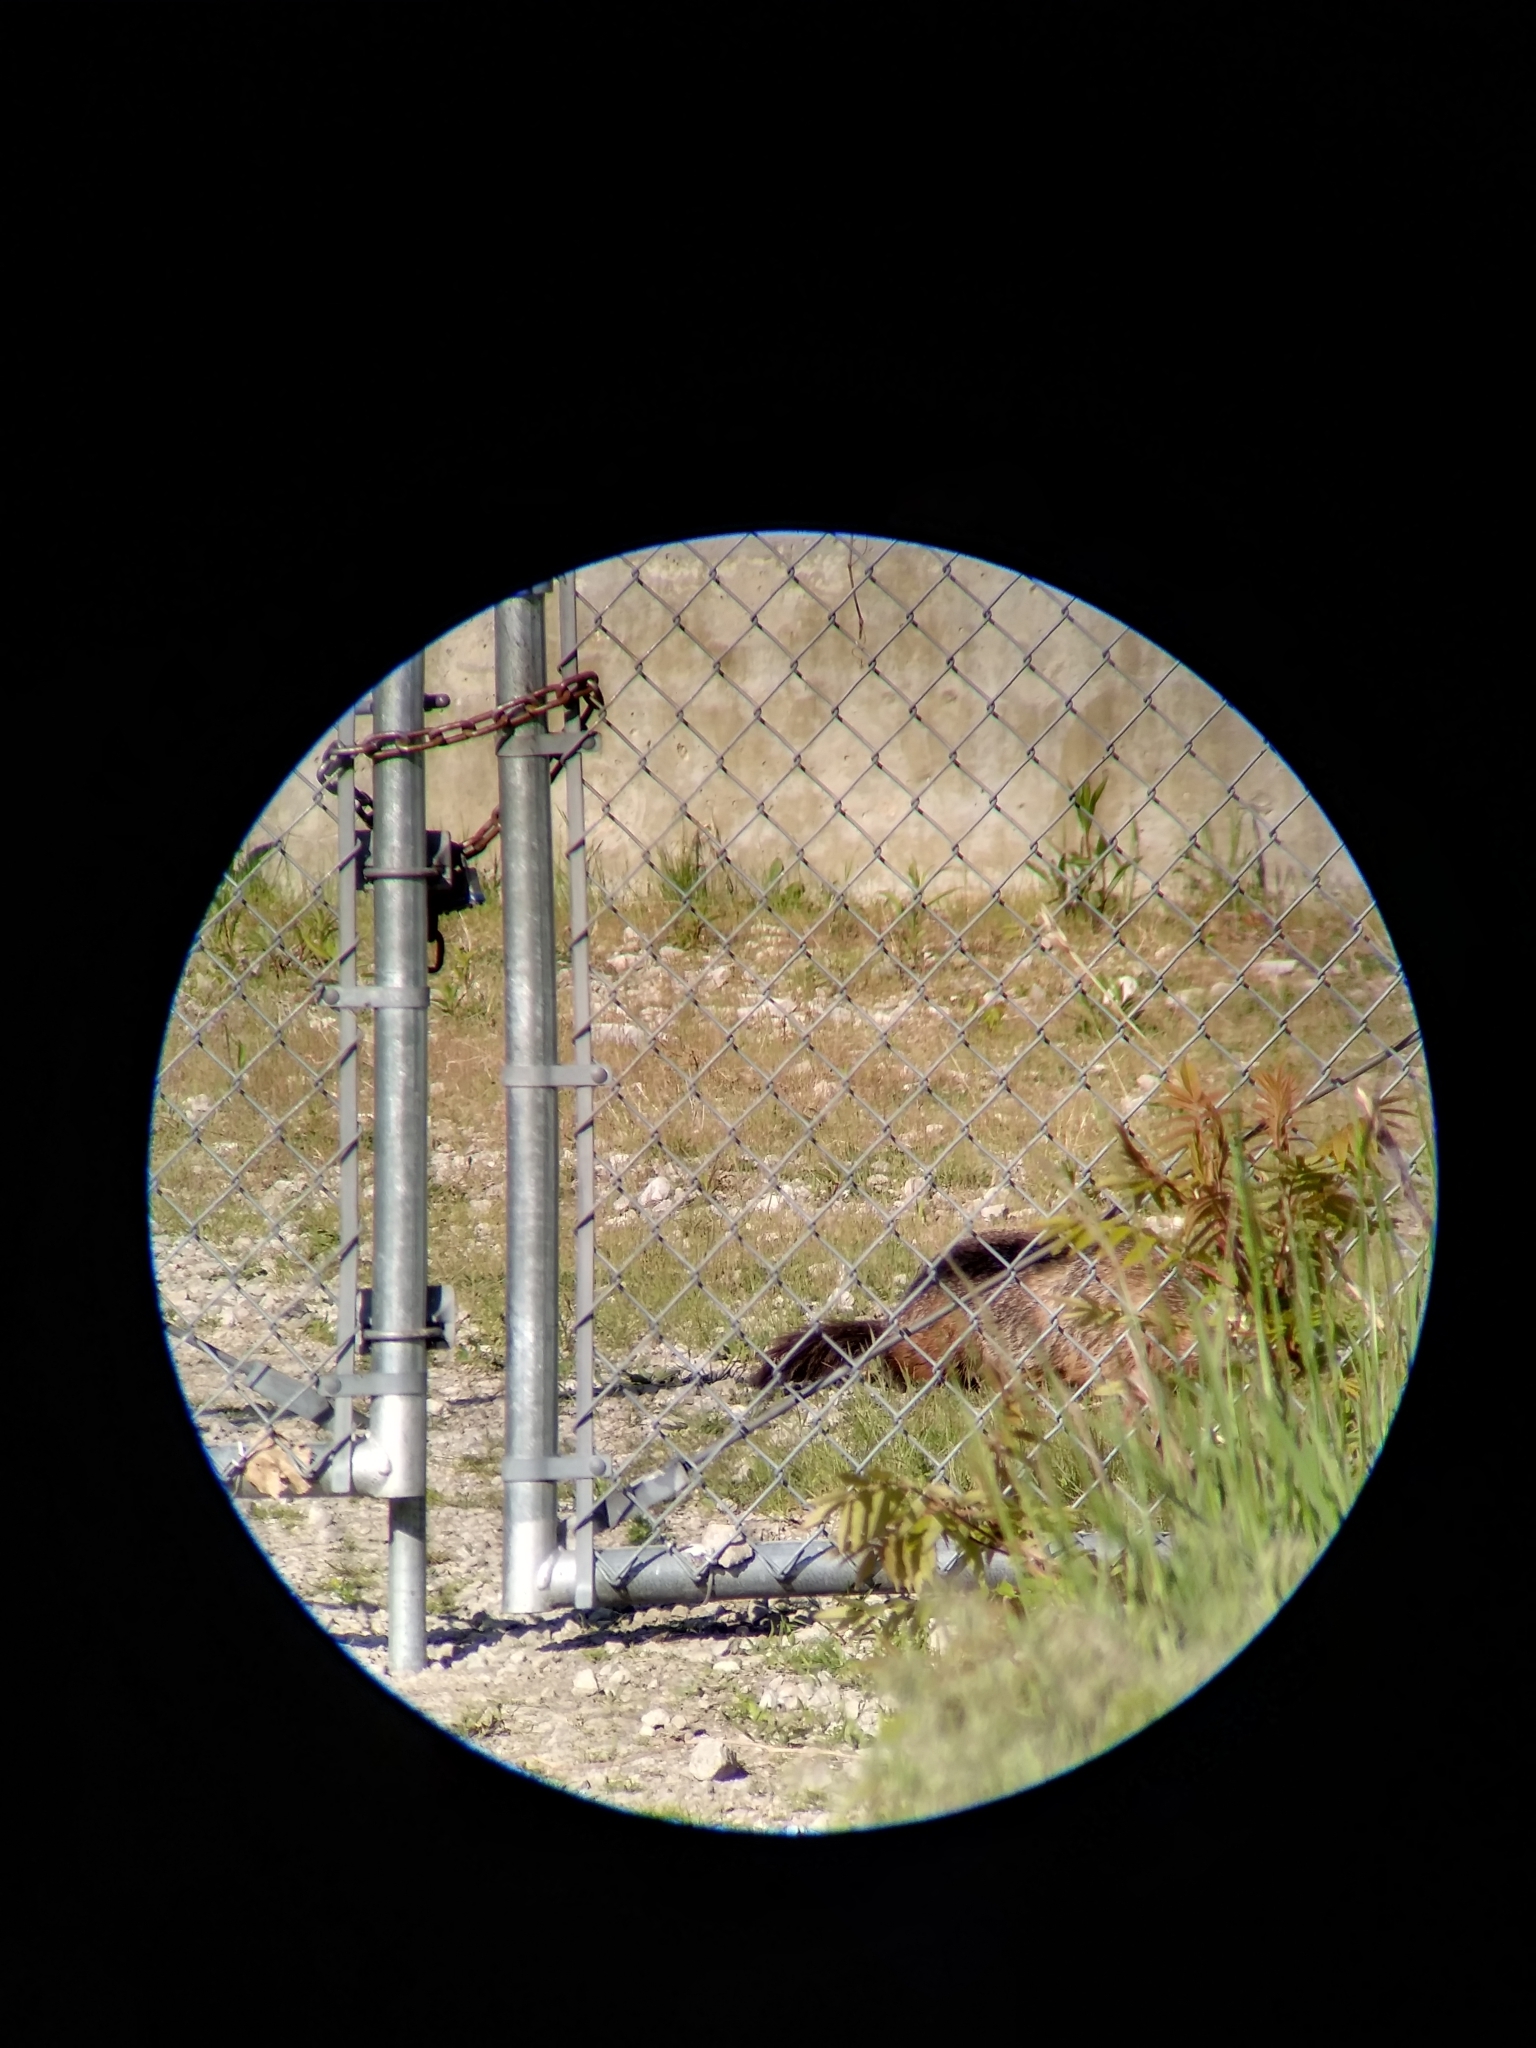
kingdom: Animalia
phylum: Chordata
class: Mammalia
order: Rodentia
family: Sciuridae
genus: Marmota
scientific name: Marmota monax
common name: Groundhog
